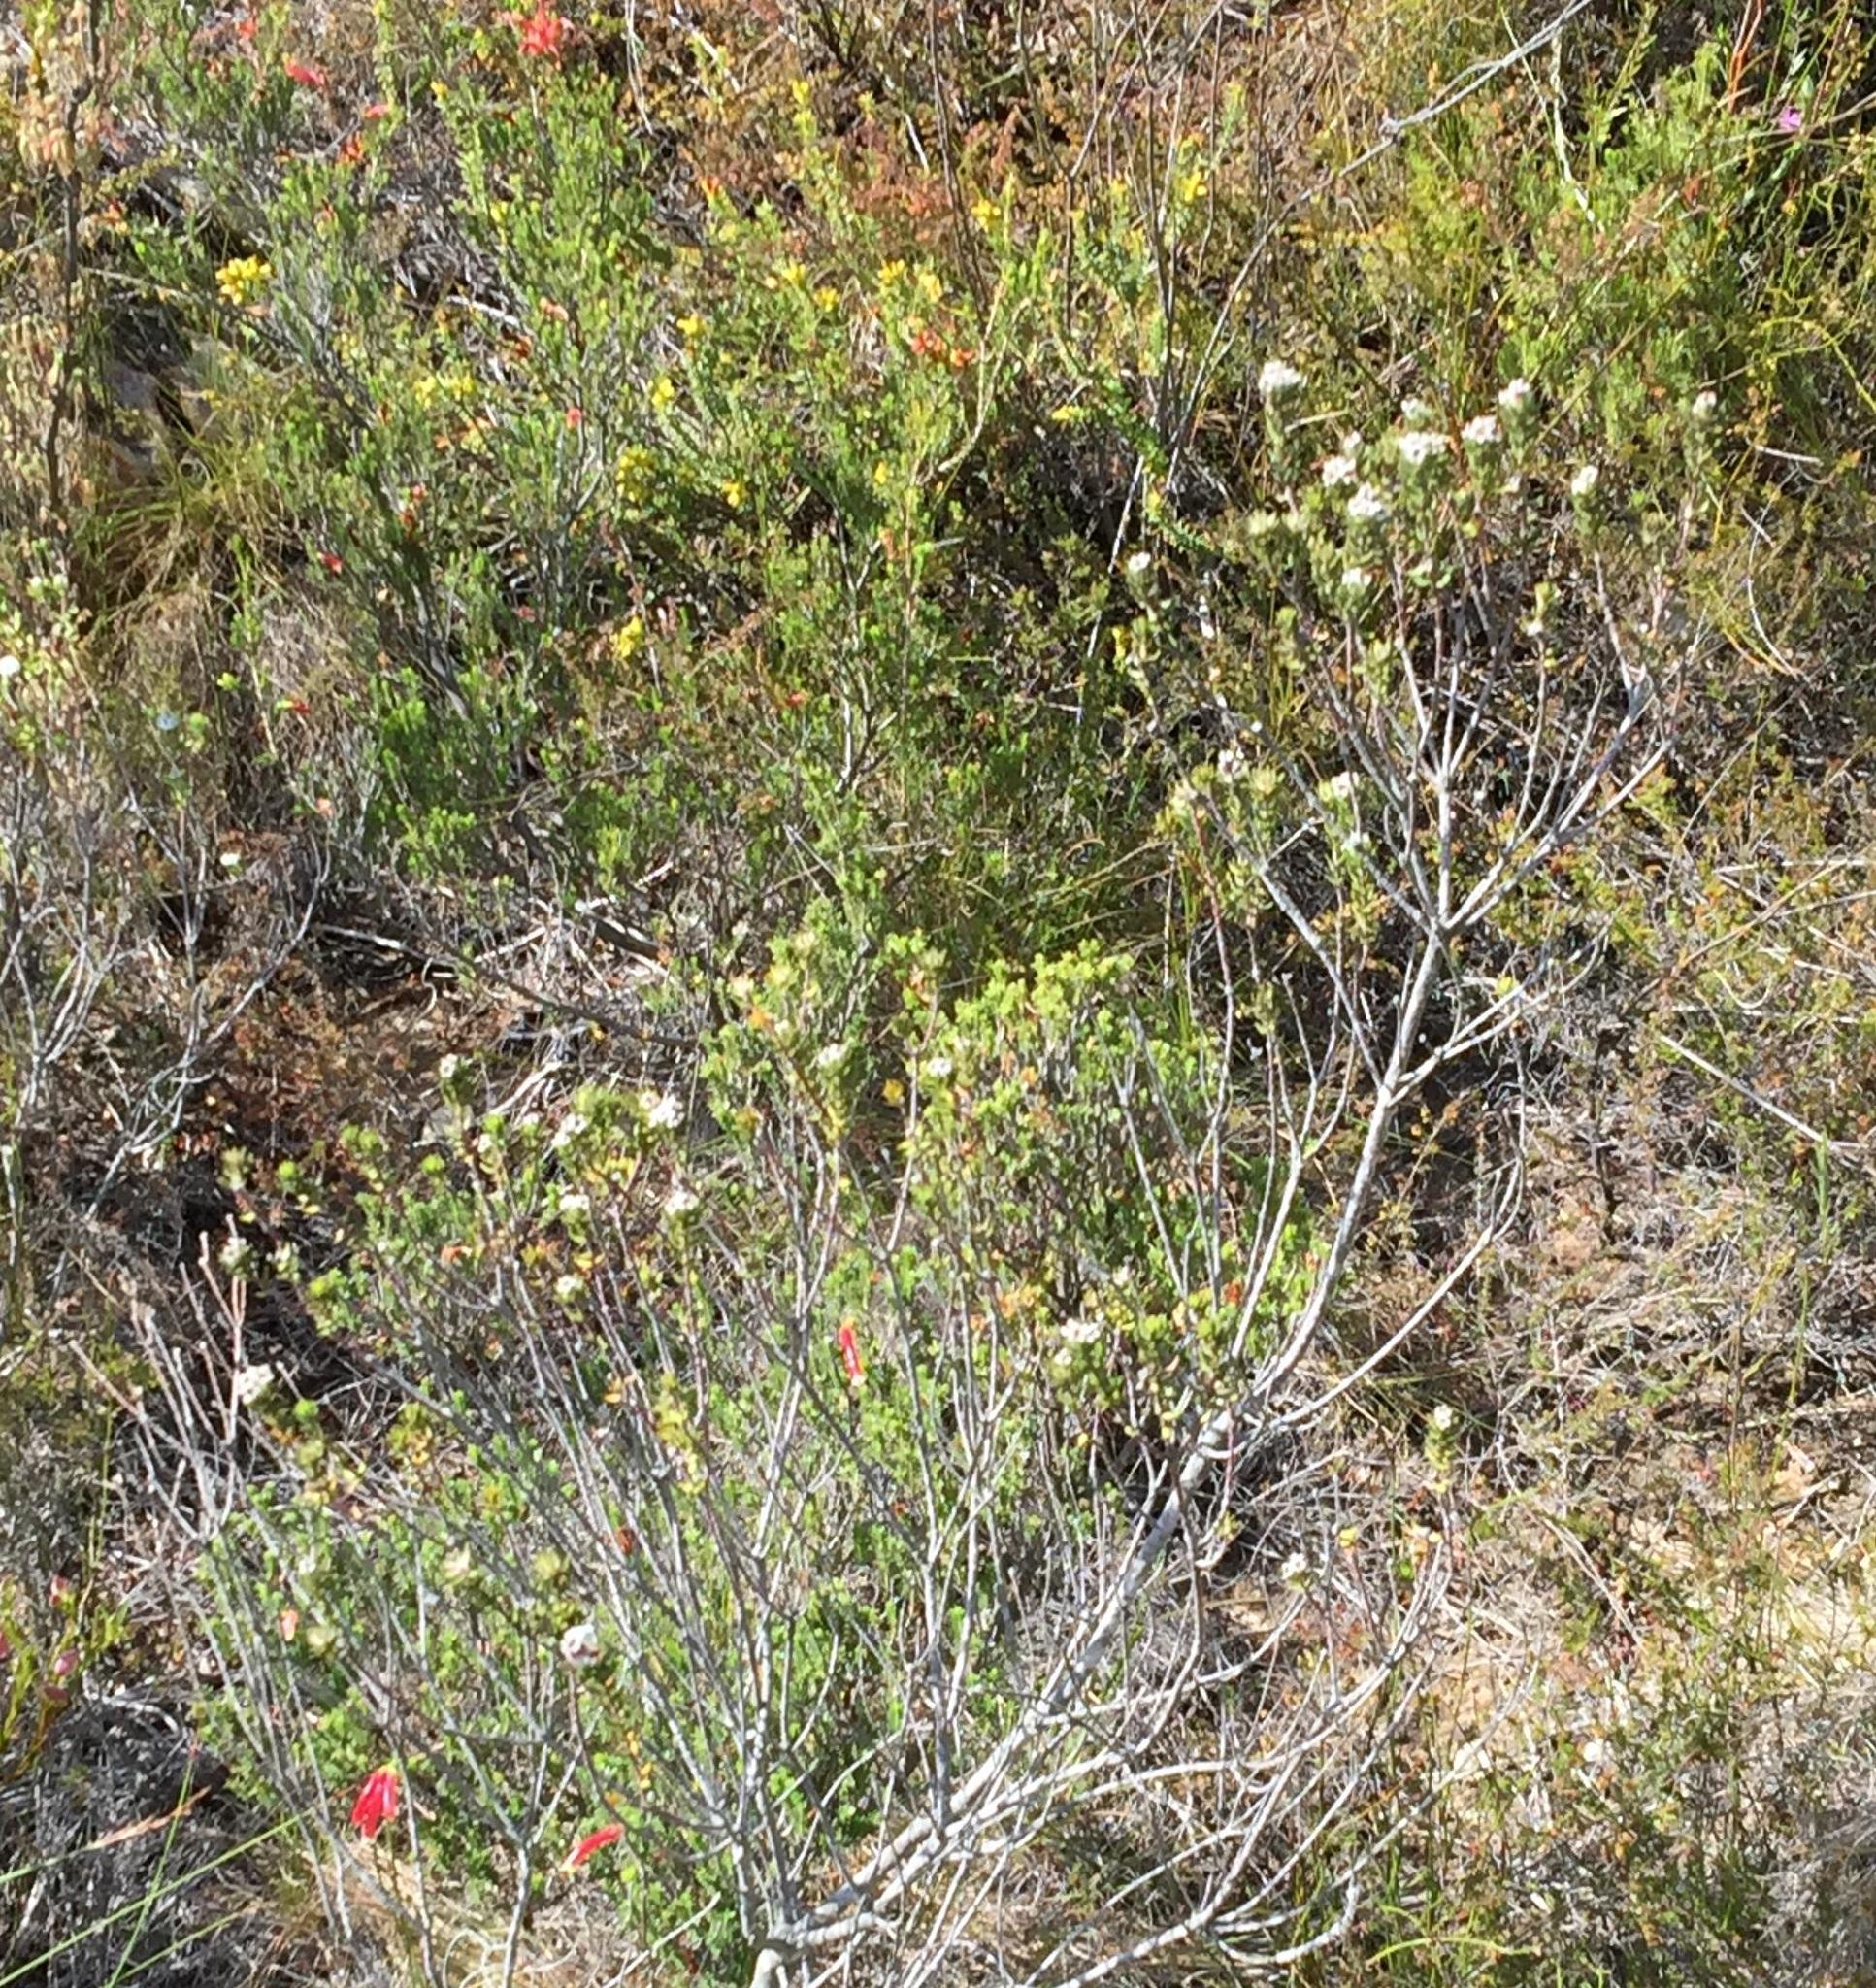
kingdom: Plantae
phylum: Tracheophyta
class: Magnoliopsida
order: Rosales
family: Rhamnaceae
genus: Phylica
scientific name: Phylica purpurea
